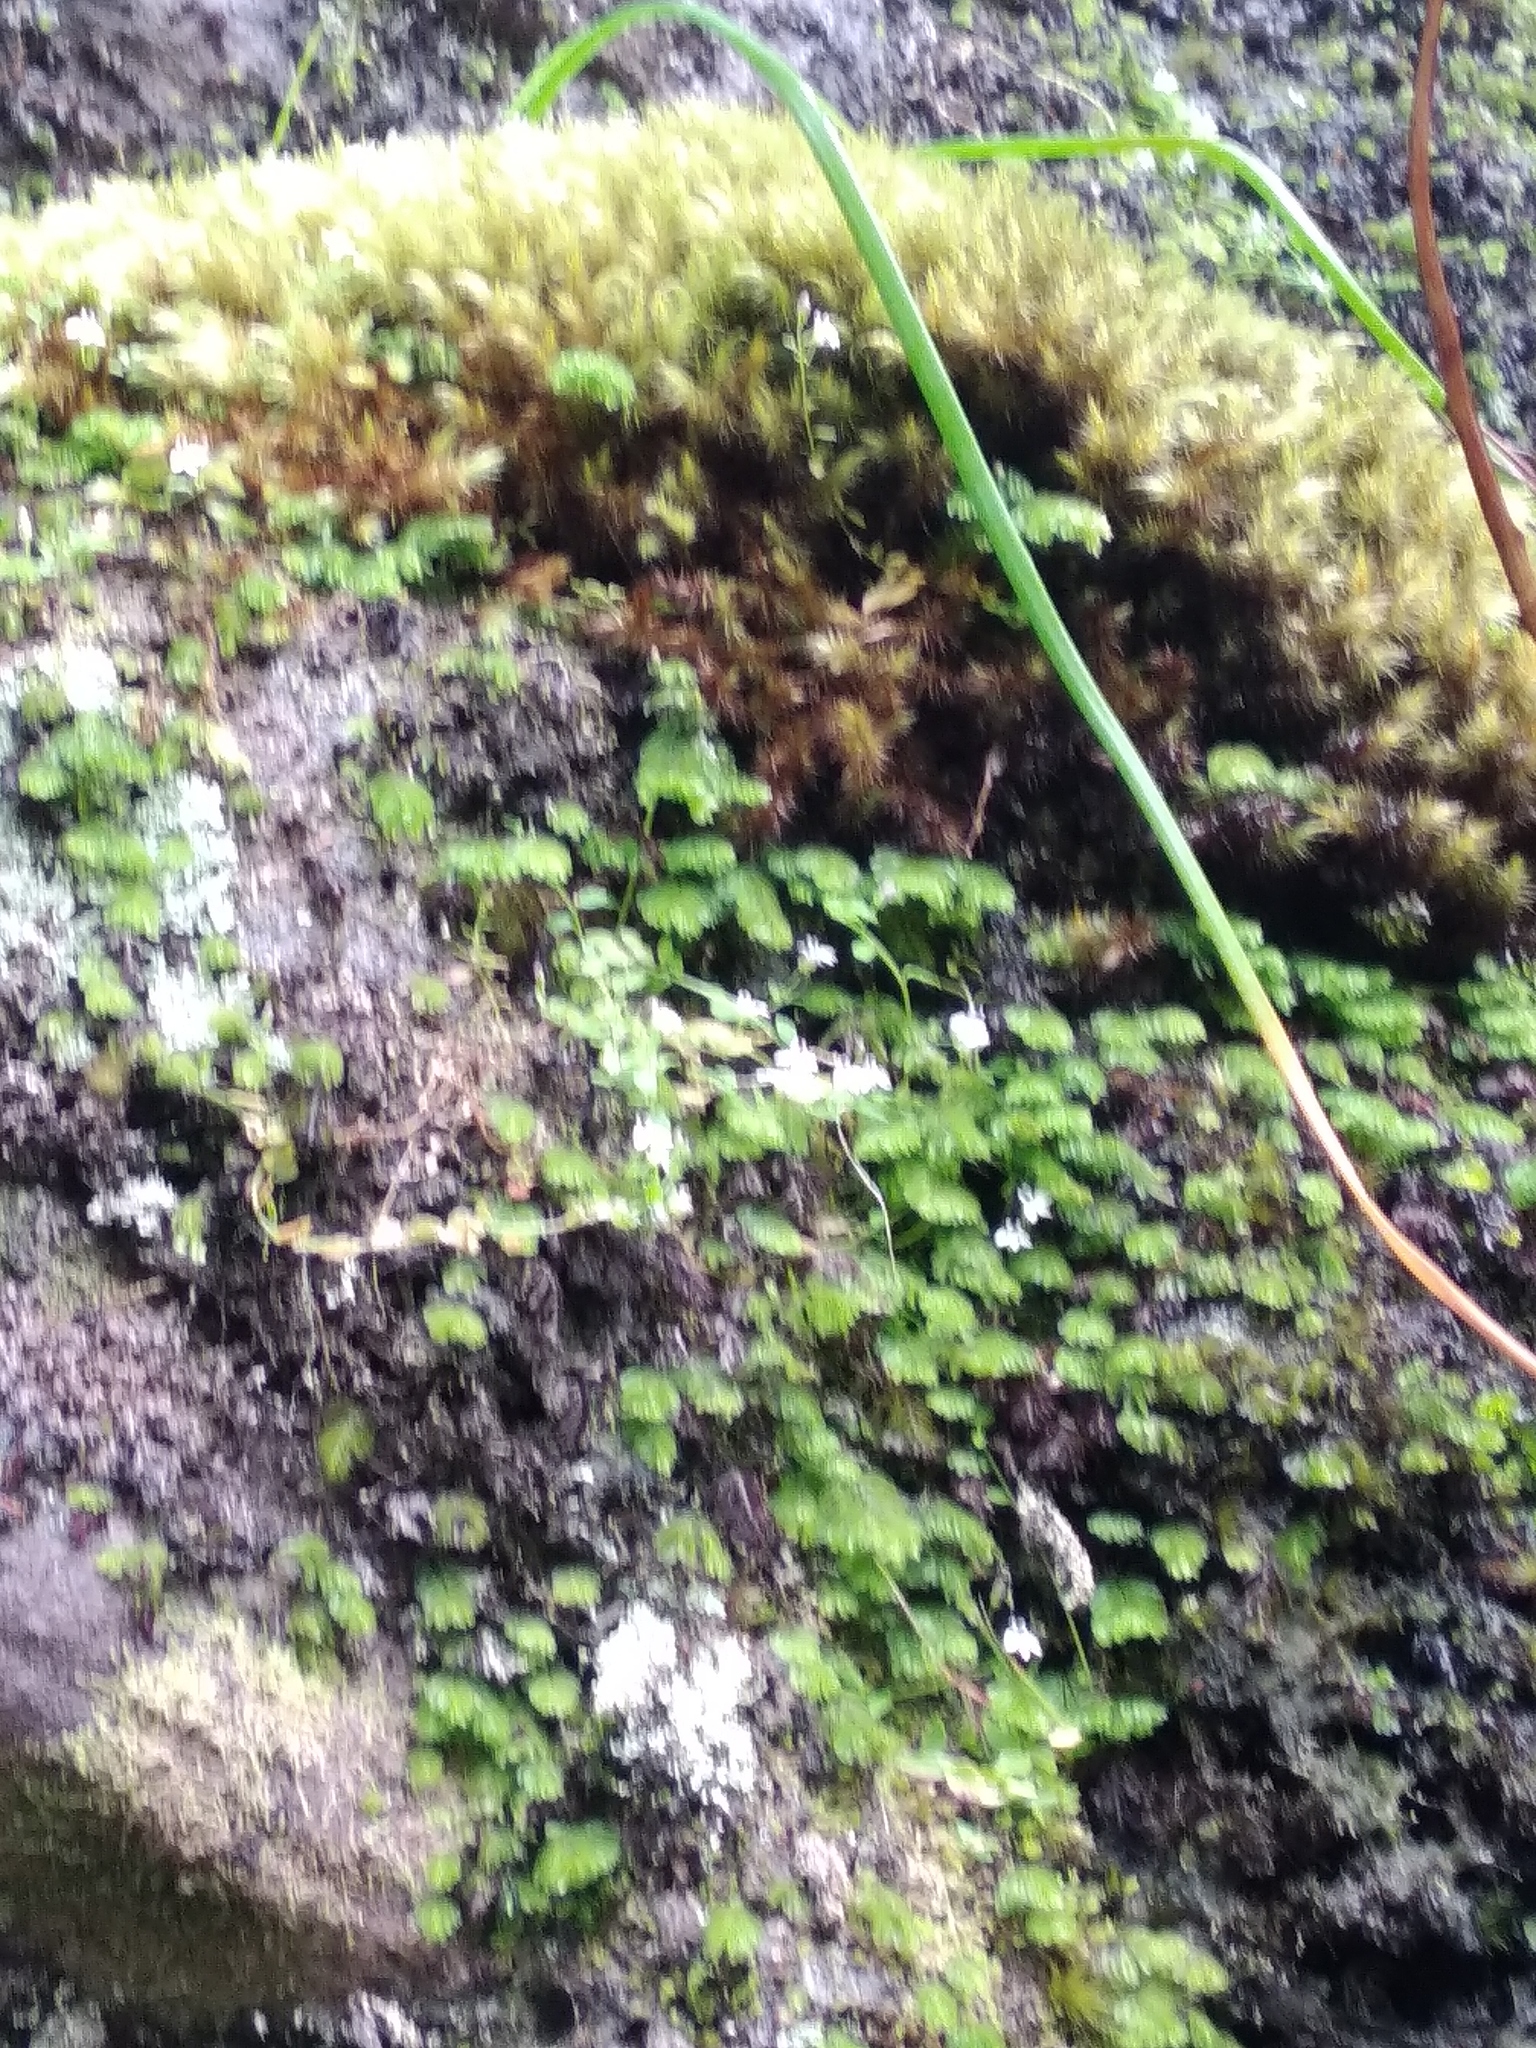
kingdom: Plantae
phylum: Tracheophyta
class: Magnoliopsida
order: Asterales
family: Campanulaceae
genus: Unigenes
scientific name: Unigenes humifusa
